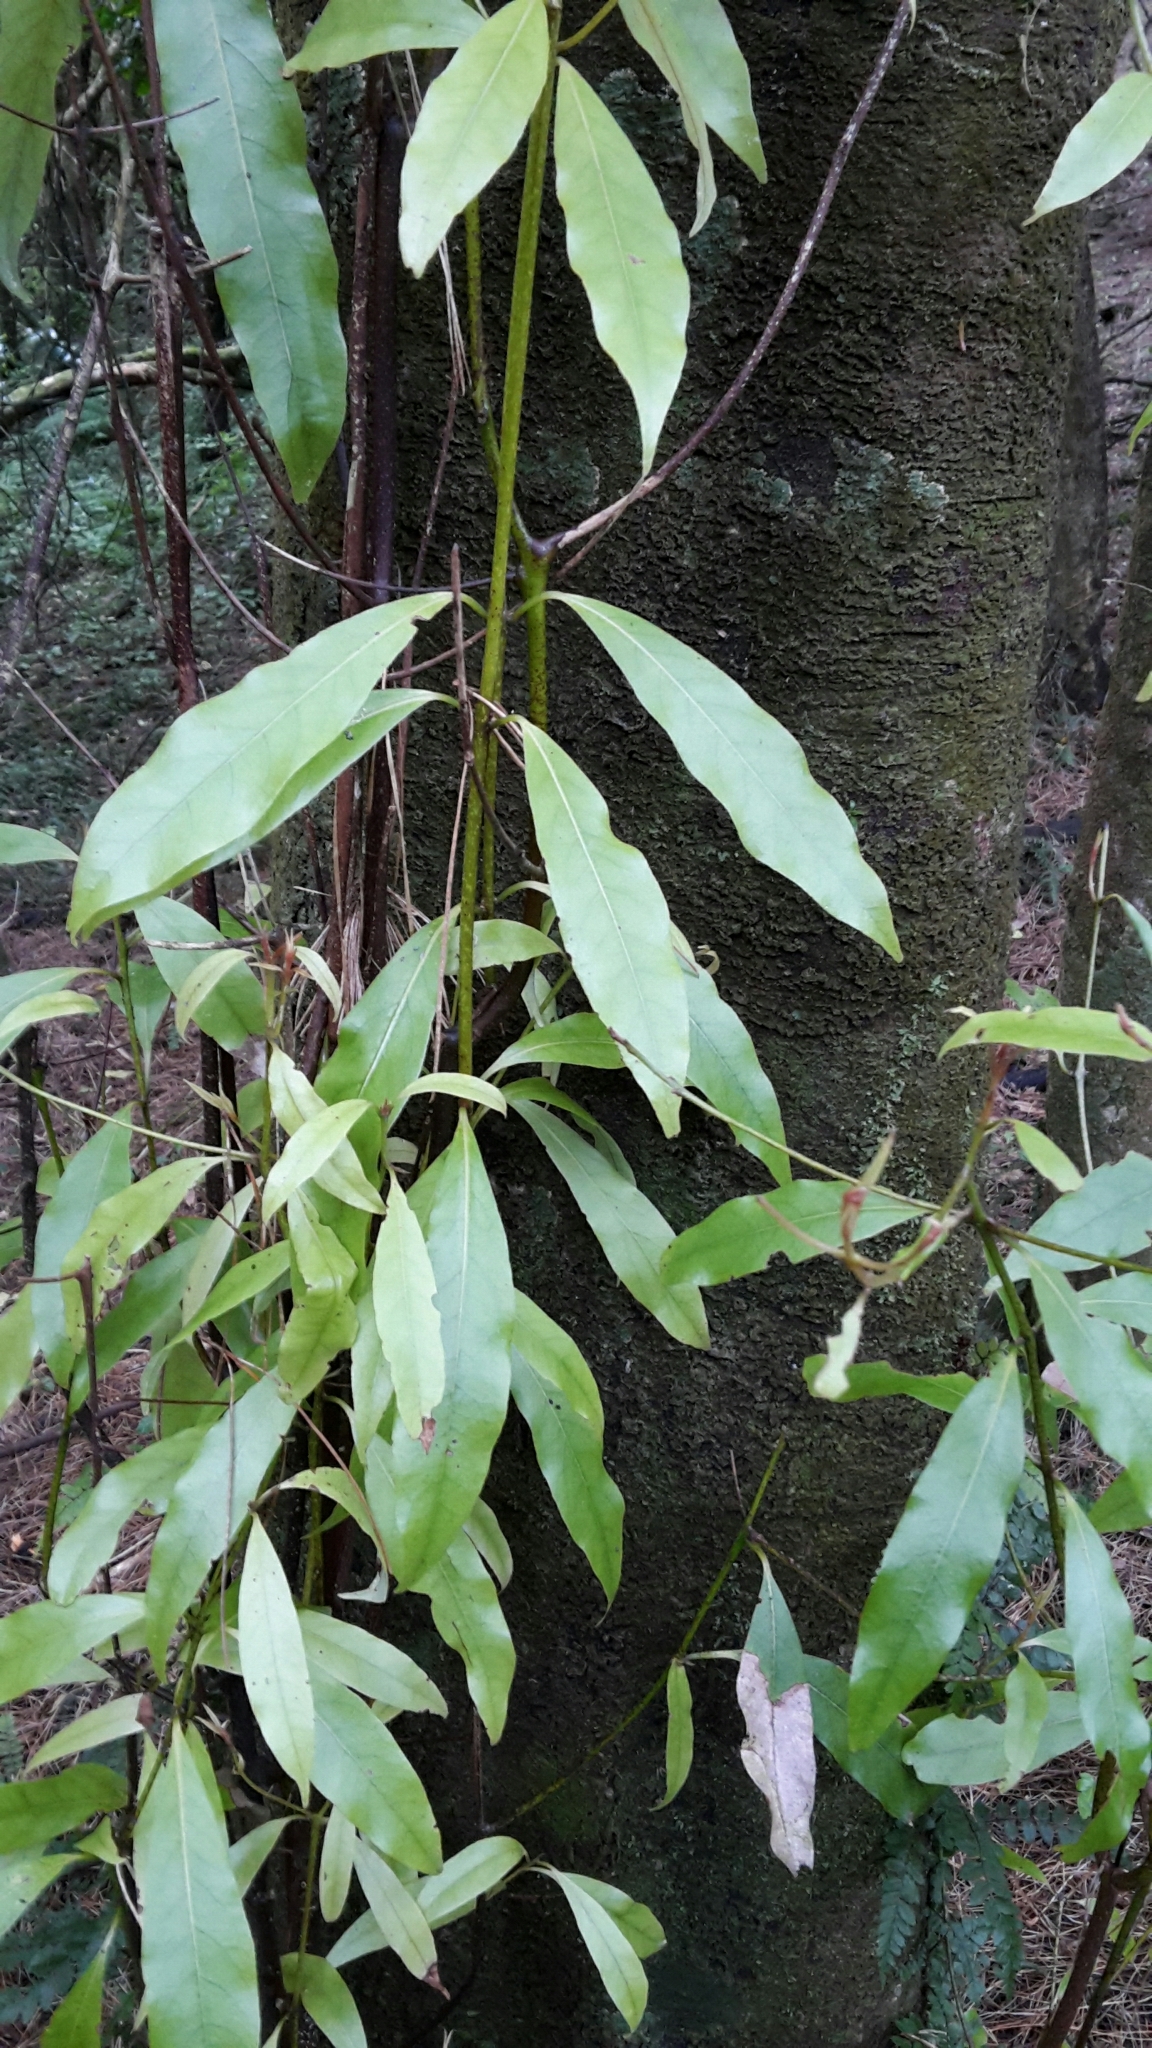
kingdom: Plantae
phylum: Tracheophyta
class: Magnoliopsida
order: Laurales
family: Lauraceae
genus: Beilschmiedia
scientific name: Beilschmiedia tawa
